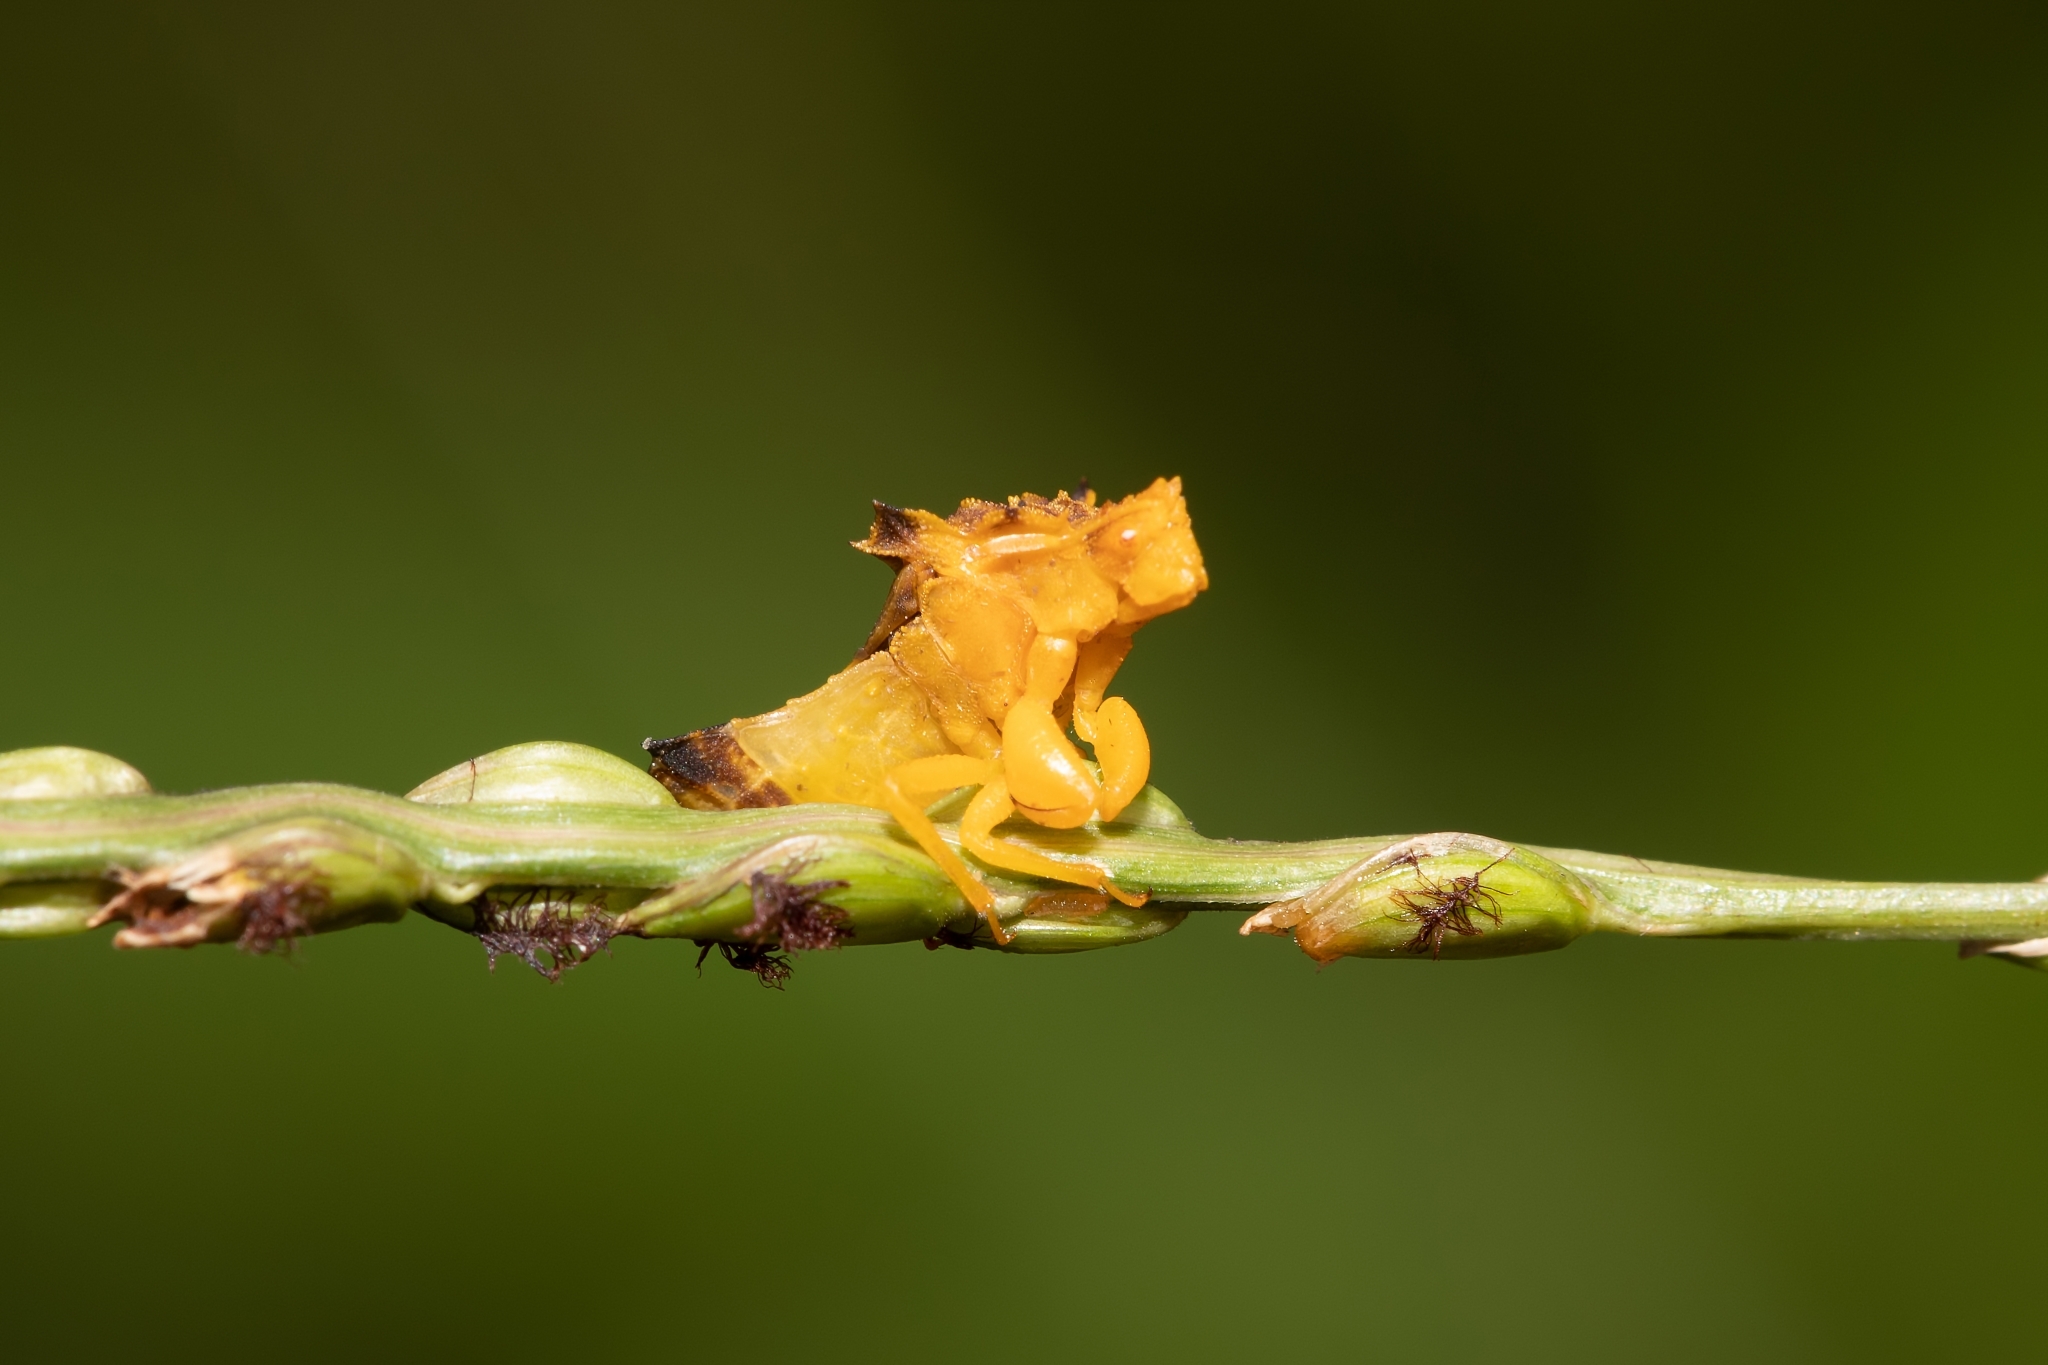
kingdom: Animalia
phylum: Arthropoda
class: Insecta
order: Hemiptera
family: Reduviidae
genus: Phymata
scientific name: Phymata
